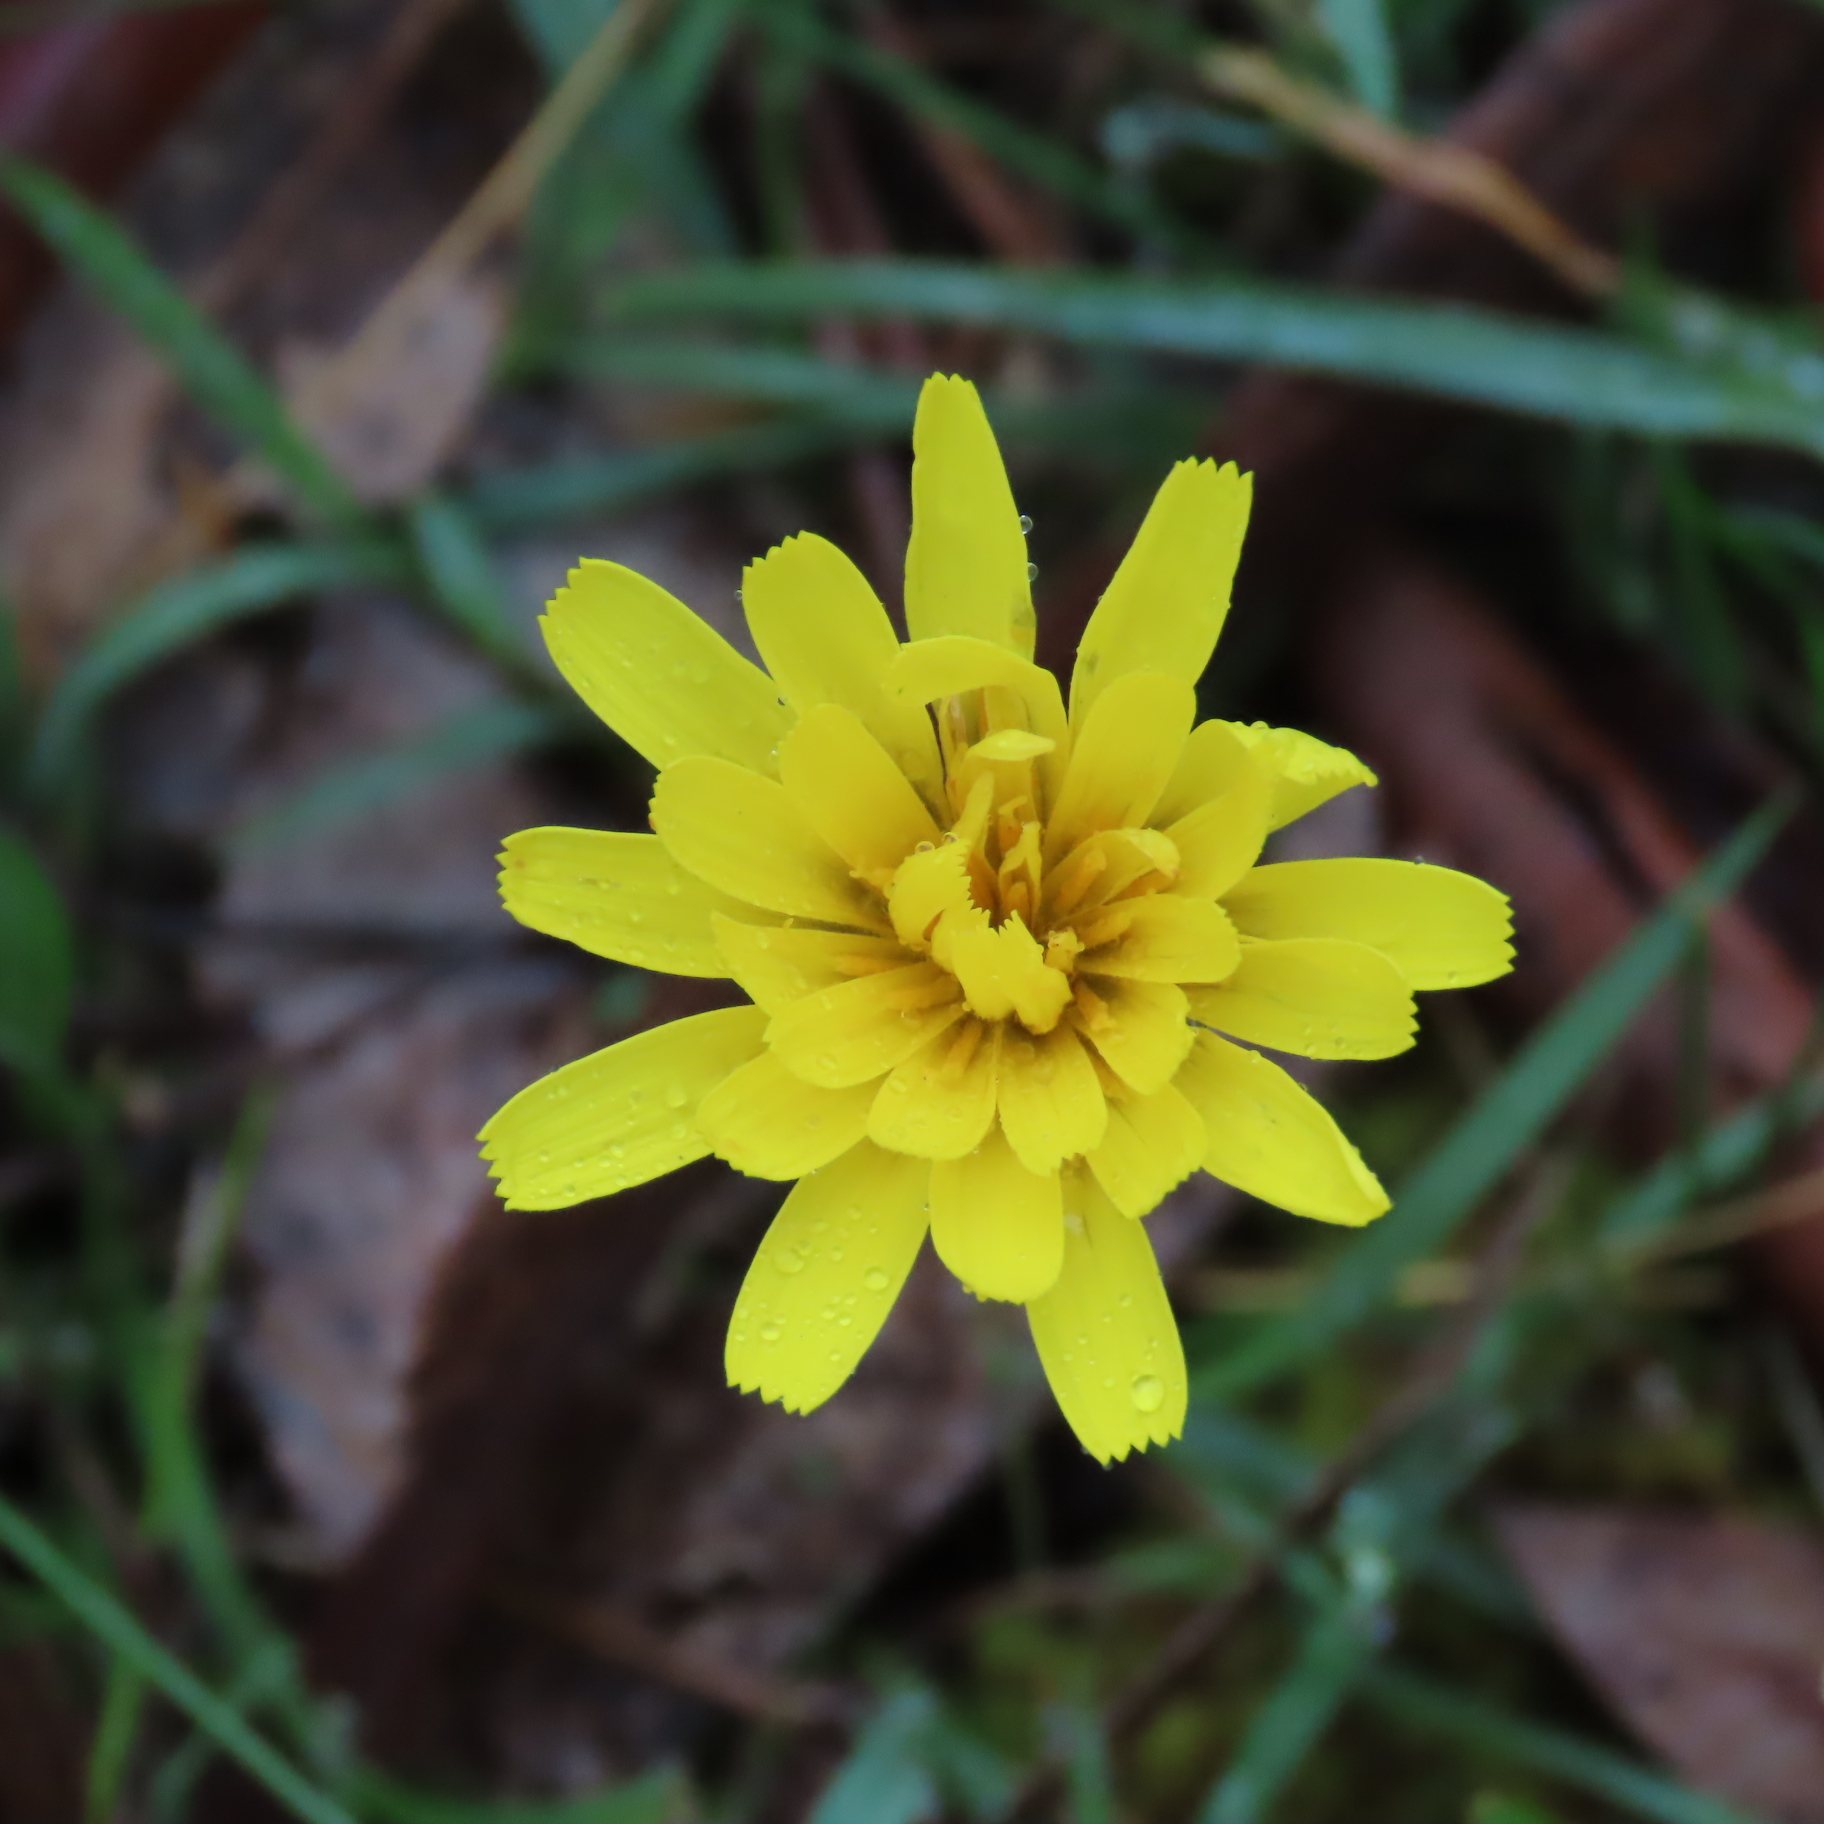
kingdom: Plantae
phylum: Tracheophyta
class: Magnoliopsida
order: Asterales
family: Asteraceae
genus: Microseris
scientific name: Microseris lanceolata
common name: Yam daisy
